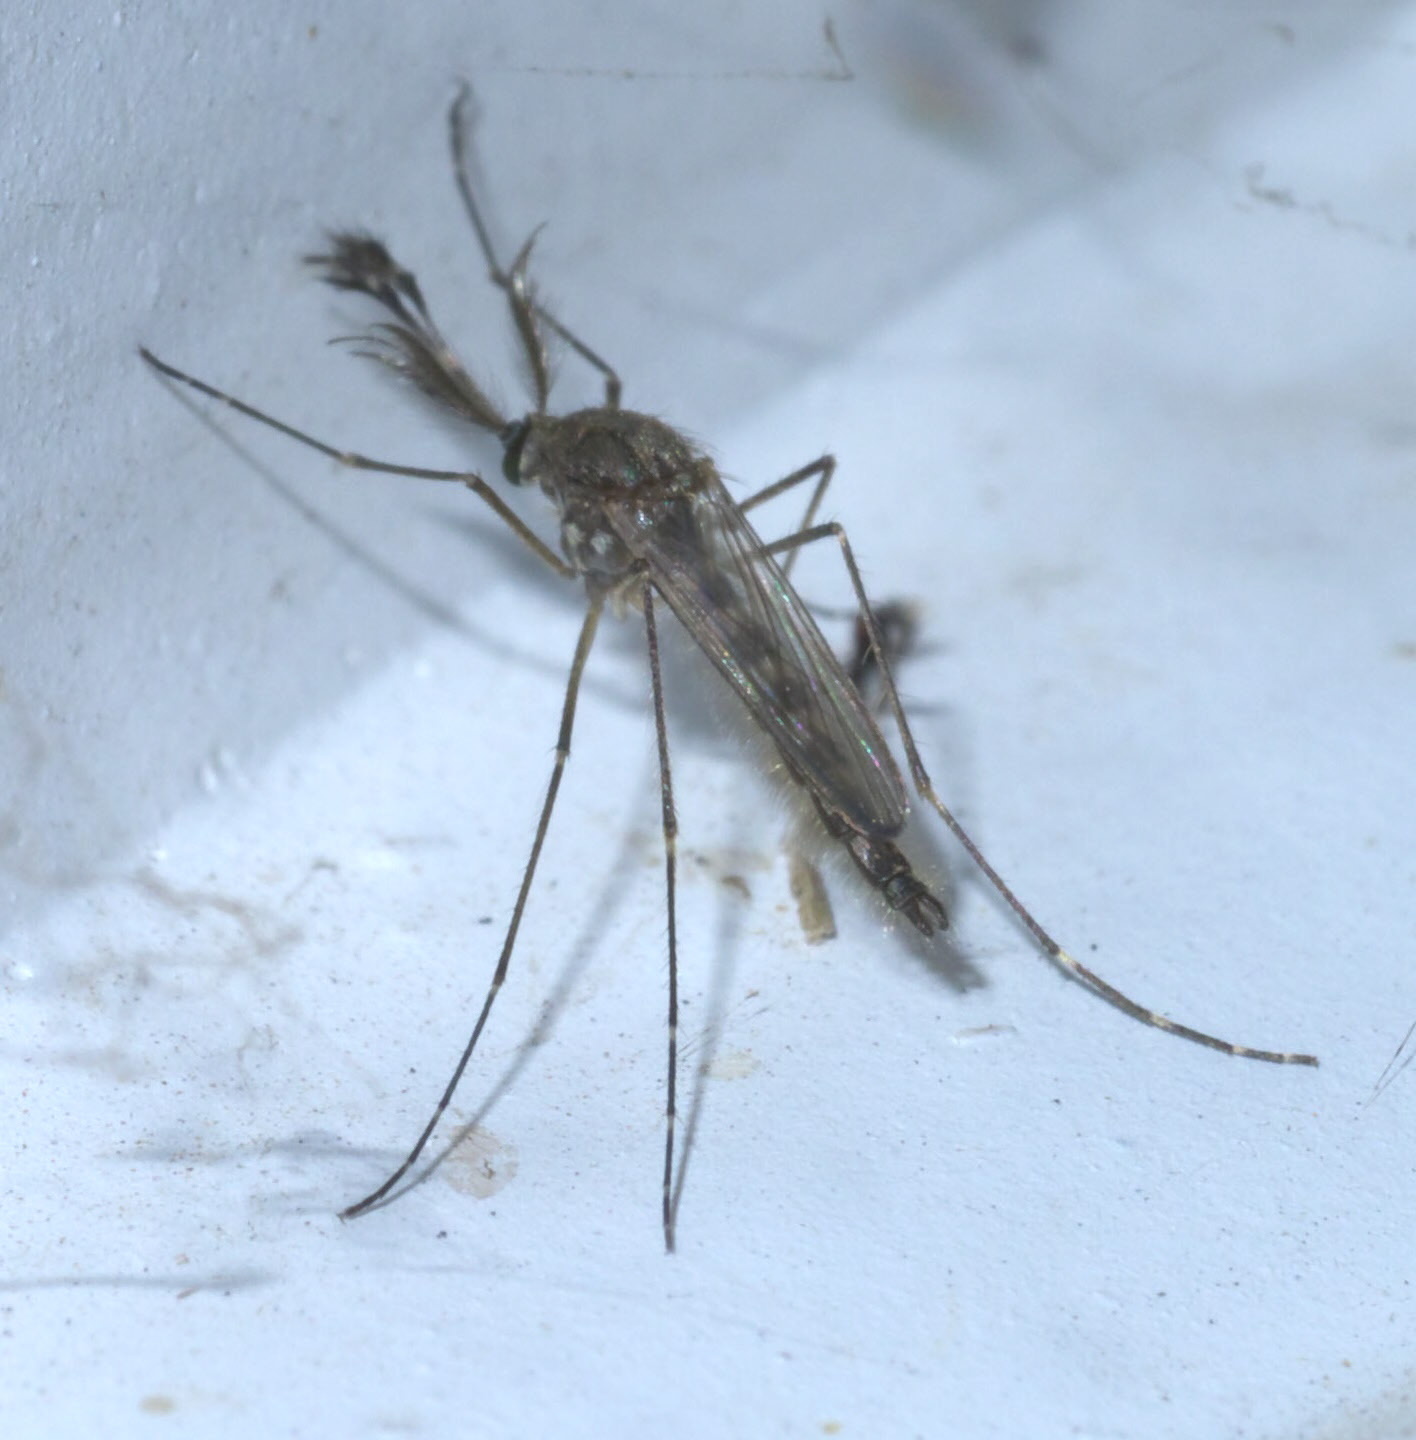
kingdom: Animalia
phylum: Arthropoda
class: Insecta
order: Diptera
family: Culicidae
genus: Aedes
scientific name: Aedes vexans
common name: Inland floodwater mosquito
